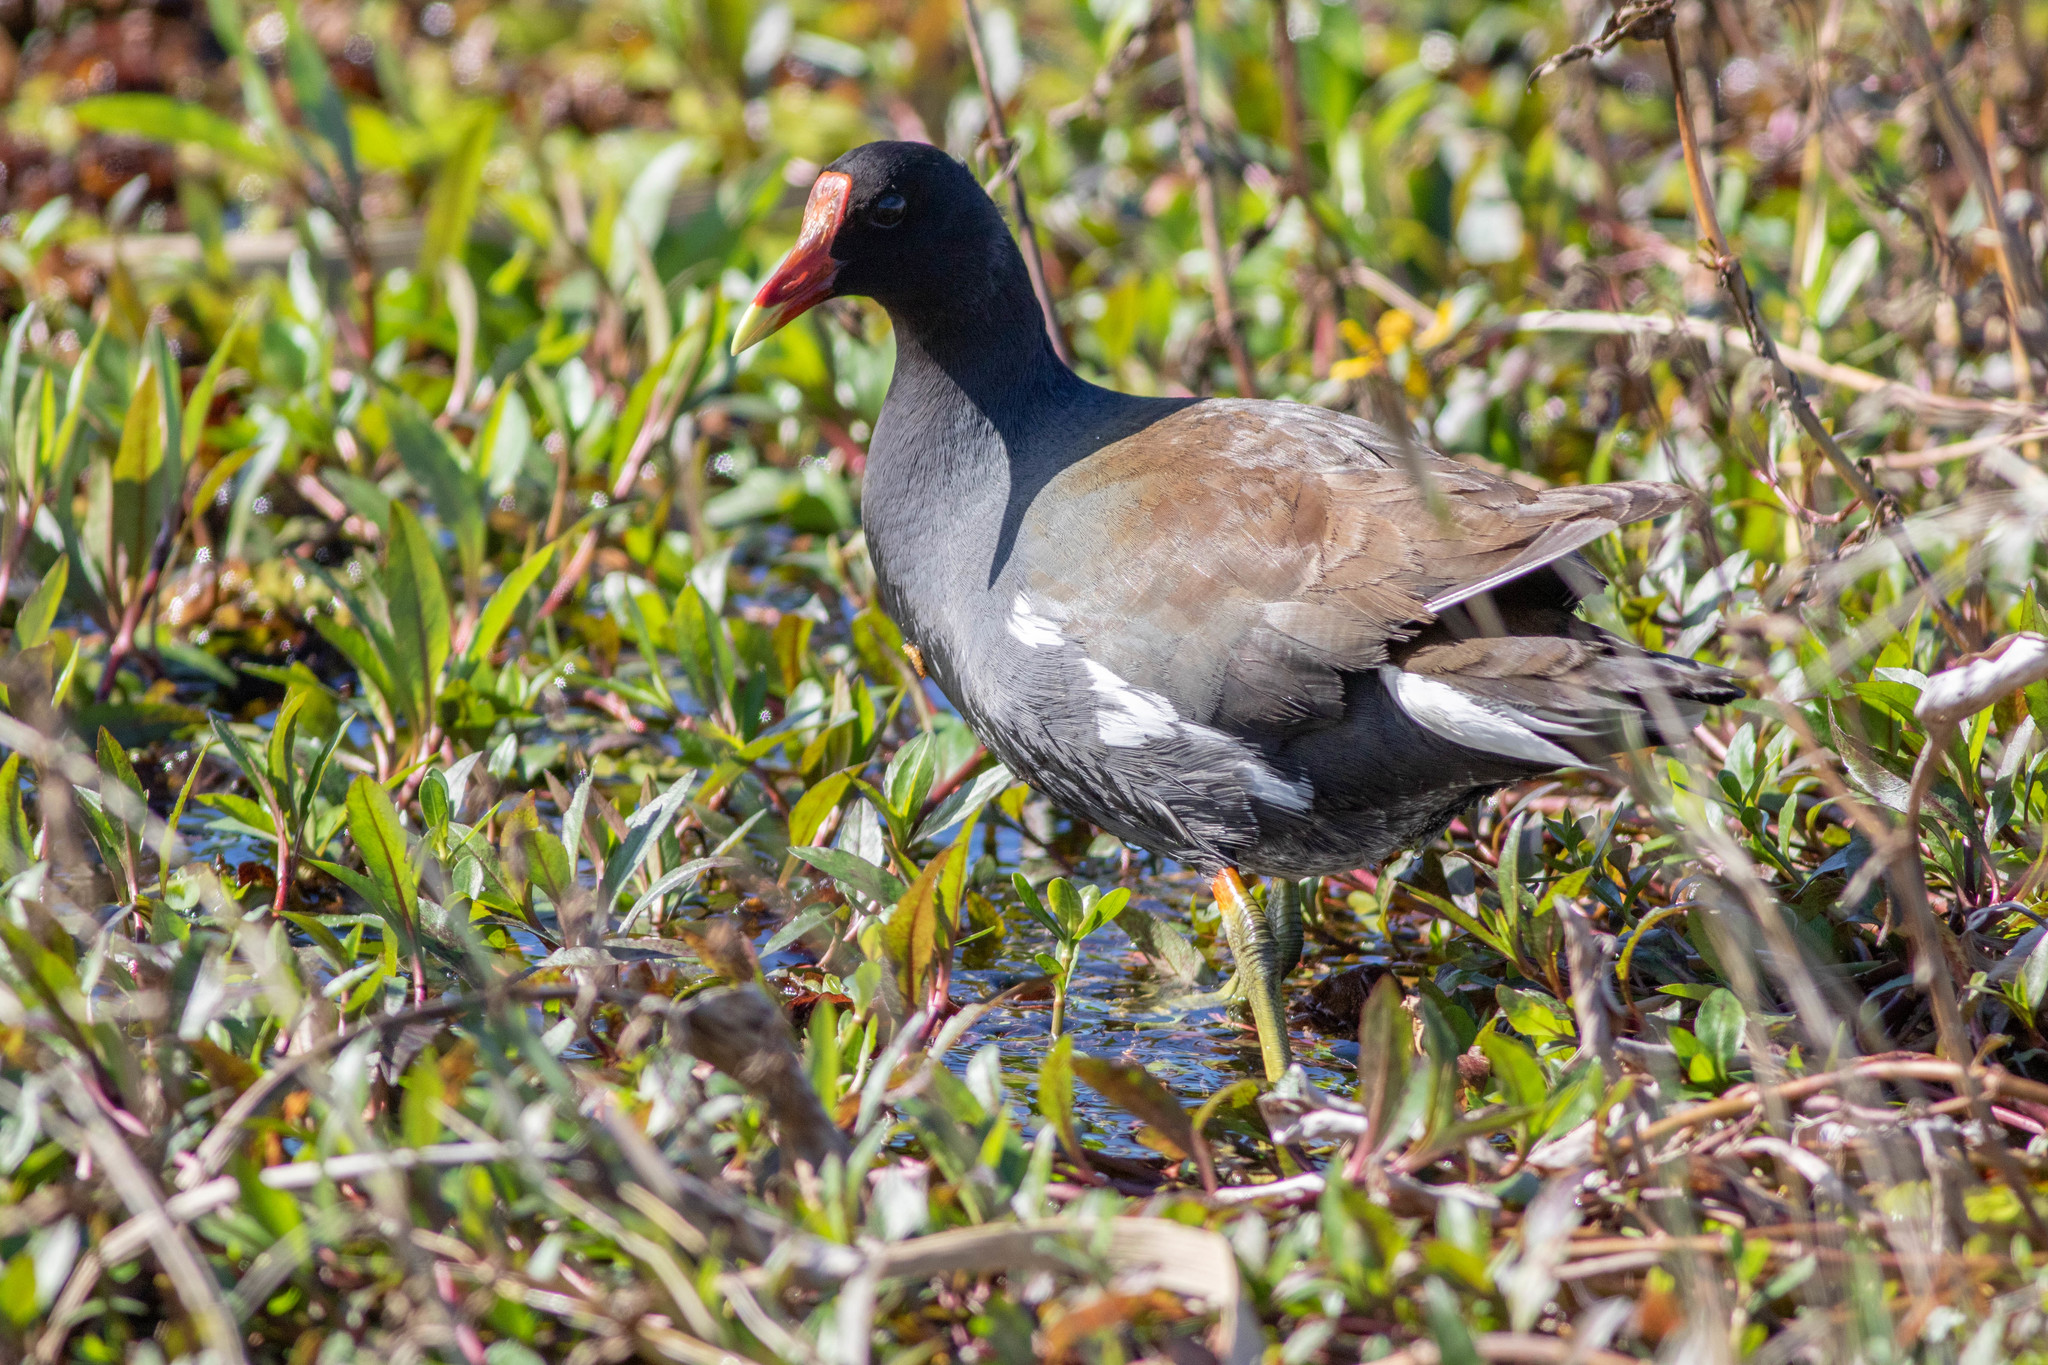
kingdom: Animalia
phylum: Chordata
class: Aves
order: Gruiformes
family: Rallidae
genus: Gallinula
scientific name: Gallinula chloropus
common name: Common moorhen
